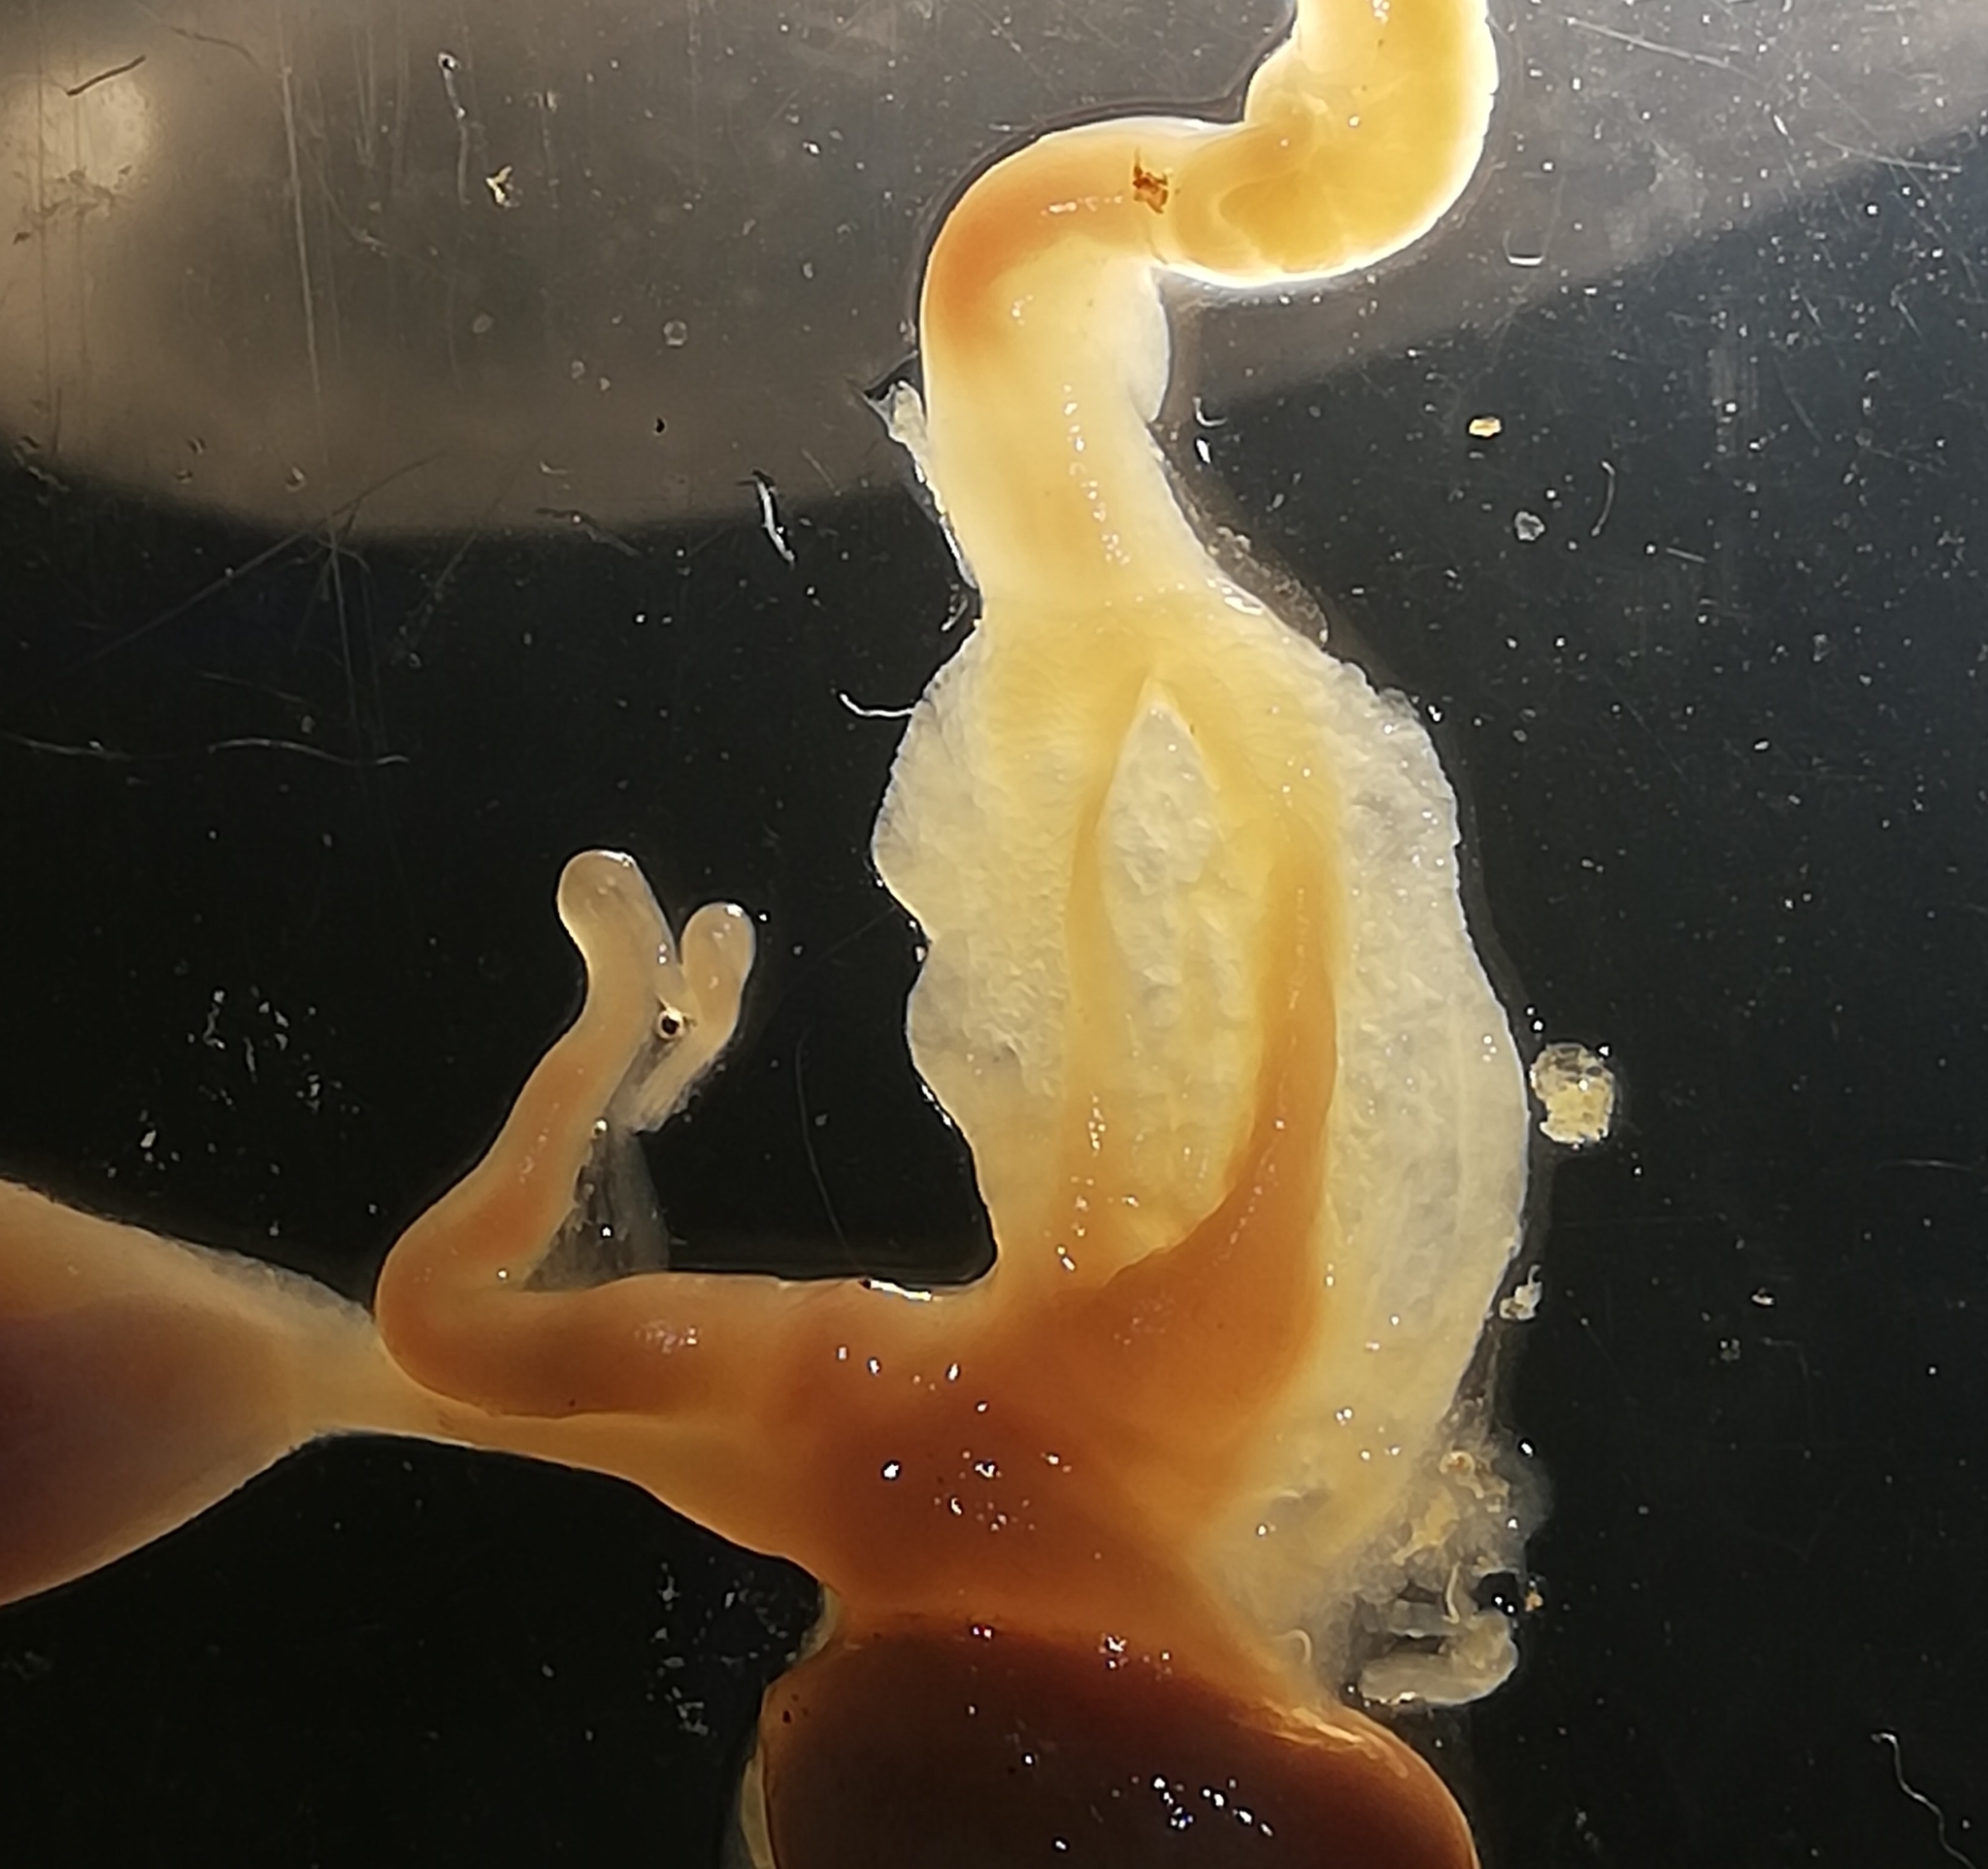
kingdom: Animalia
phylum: Mollusca
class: Gastropoda
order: Stylommatophora
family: Arionidae
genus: Arion
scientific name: Arion vulgaris
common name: Lusitanian slug
